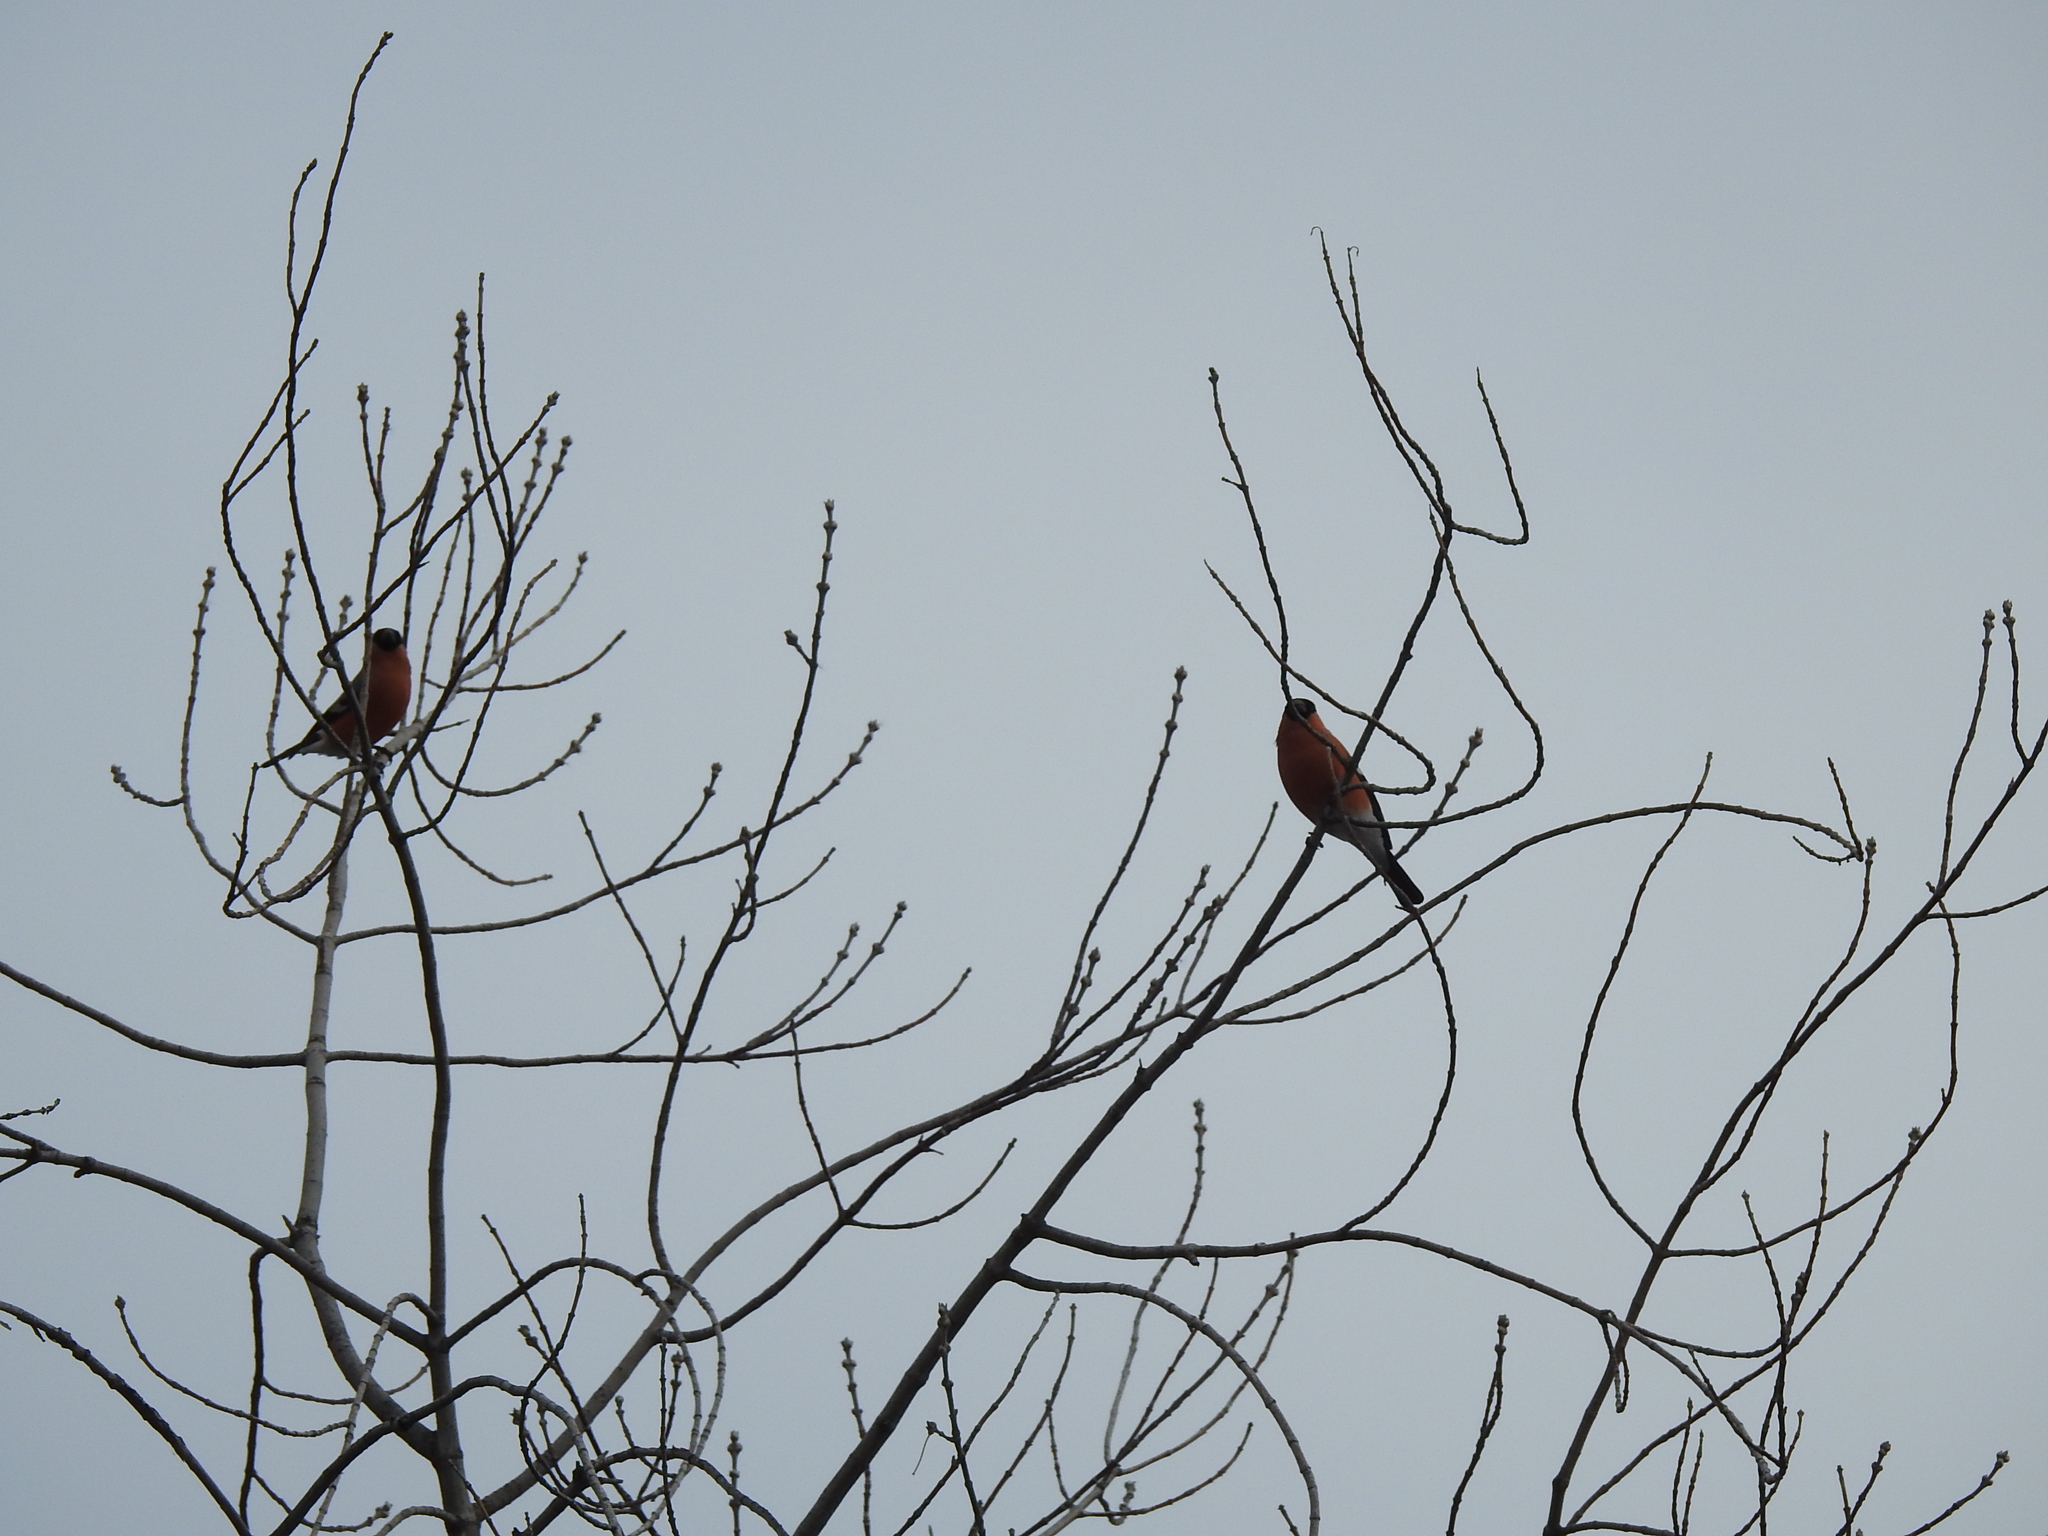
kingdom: Animalia
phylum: Chordata
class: Aves
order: Passeriformes
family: Fringillidae
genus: Pyrrhula
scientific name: Pyrrhula pyrrhula
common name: Eurasian bullfinch
